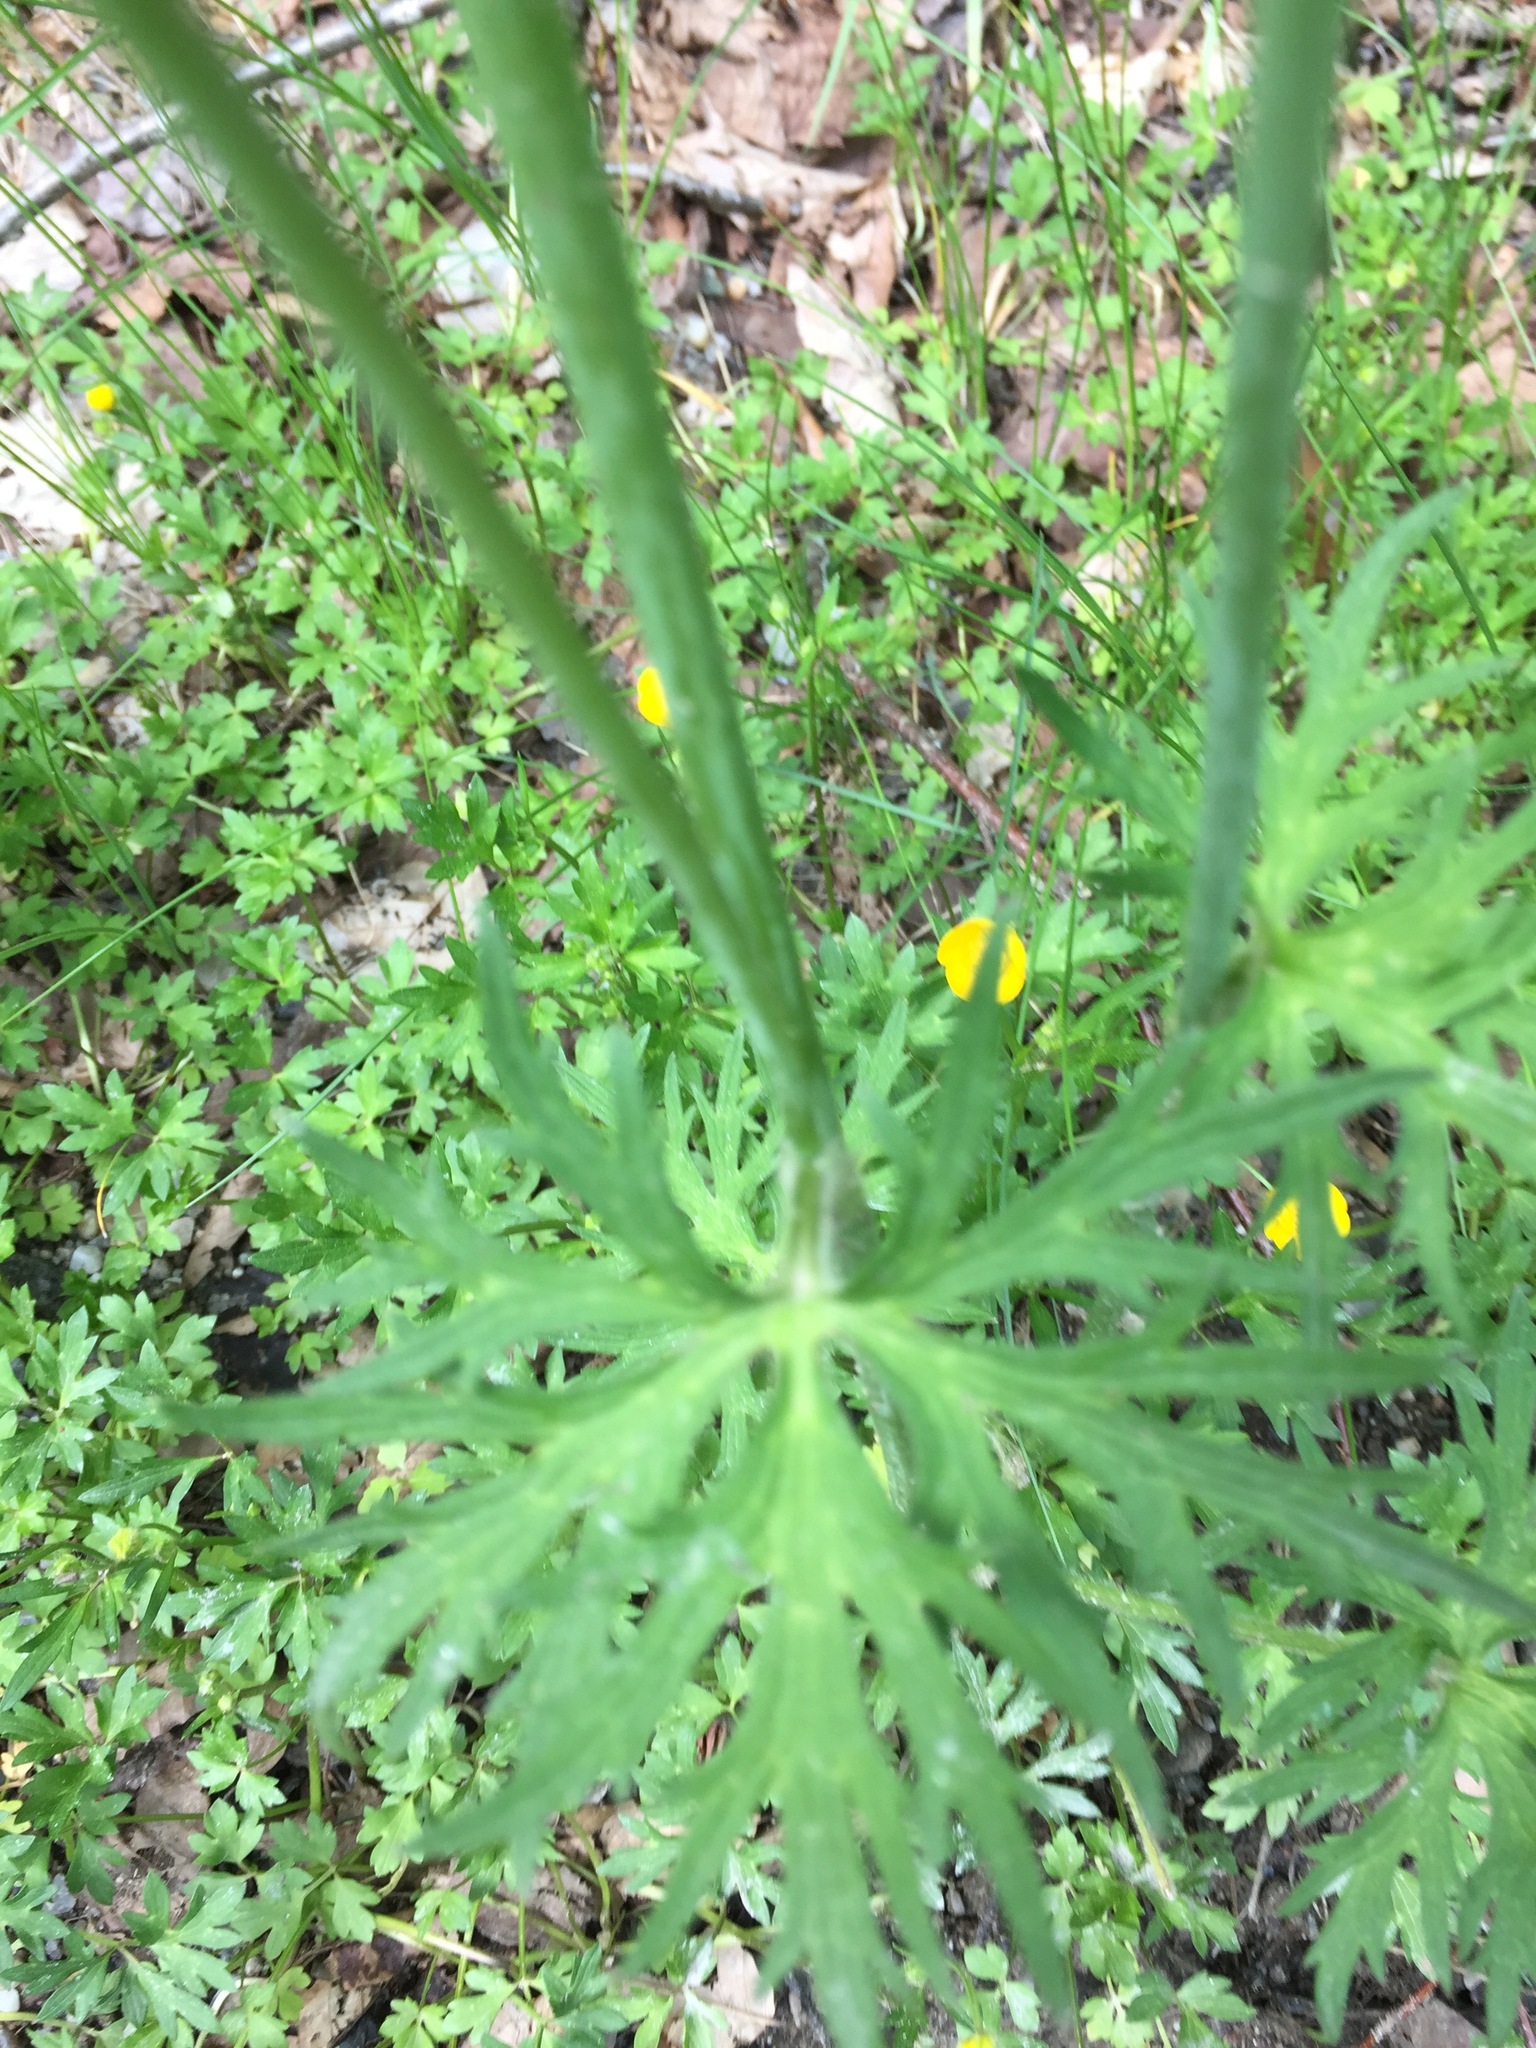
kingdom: Plantae
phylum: Tracheophyta
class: Magnoliopsida
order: Ranunculales
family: Ranunculaceae
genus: Ranunculus
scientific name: Ranunculus bulbosus
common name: Bulbous buttercup
